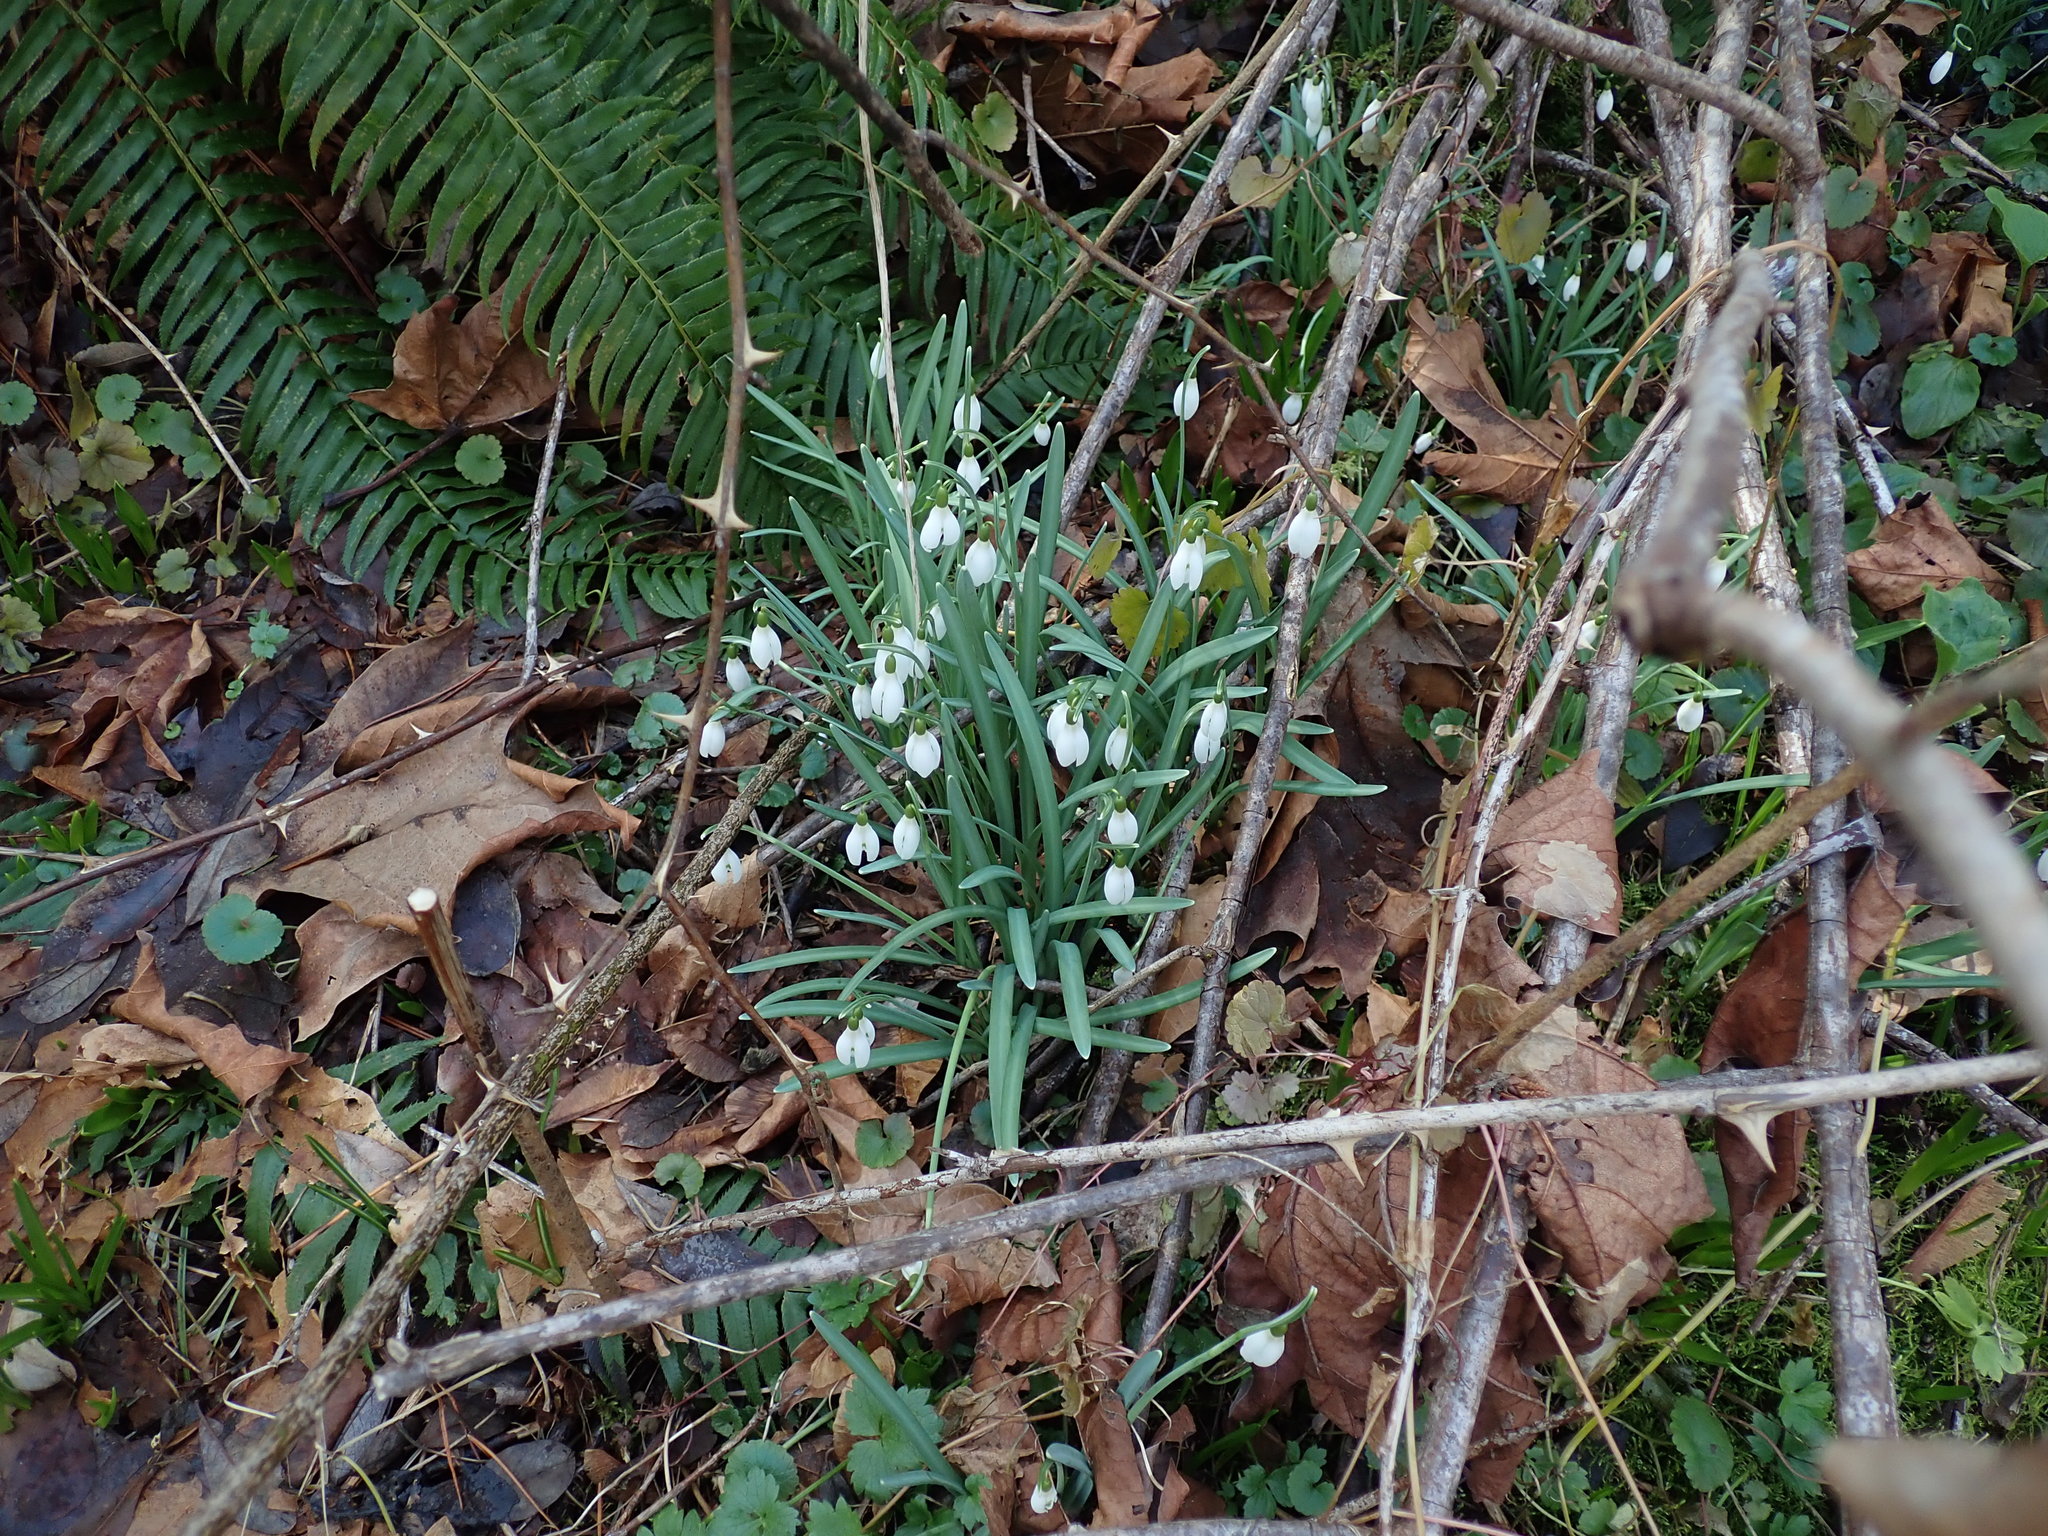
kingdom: Plantae
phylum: Tracheophyta
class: Liliopsida
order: Asparagales
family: Amaryllidaceae
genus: Galanthus
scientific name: Galanthus nivalis
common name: Snowdrop
